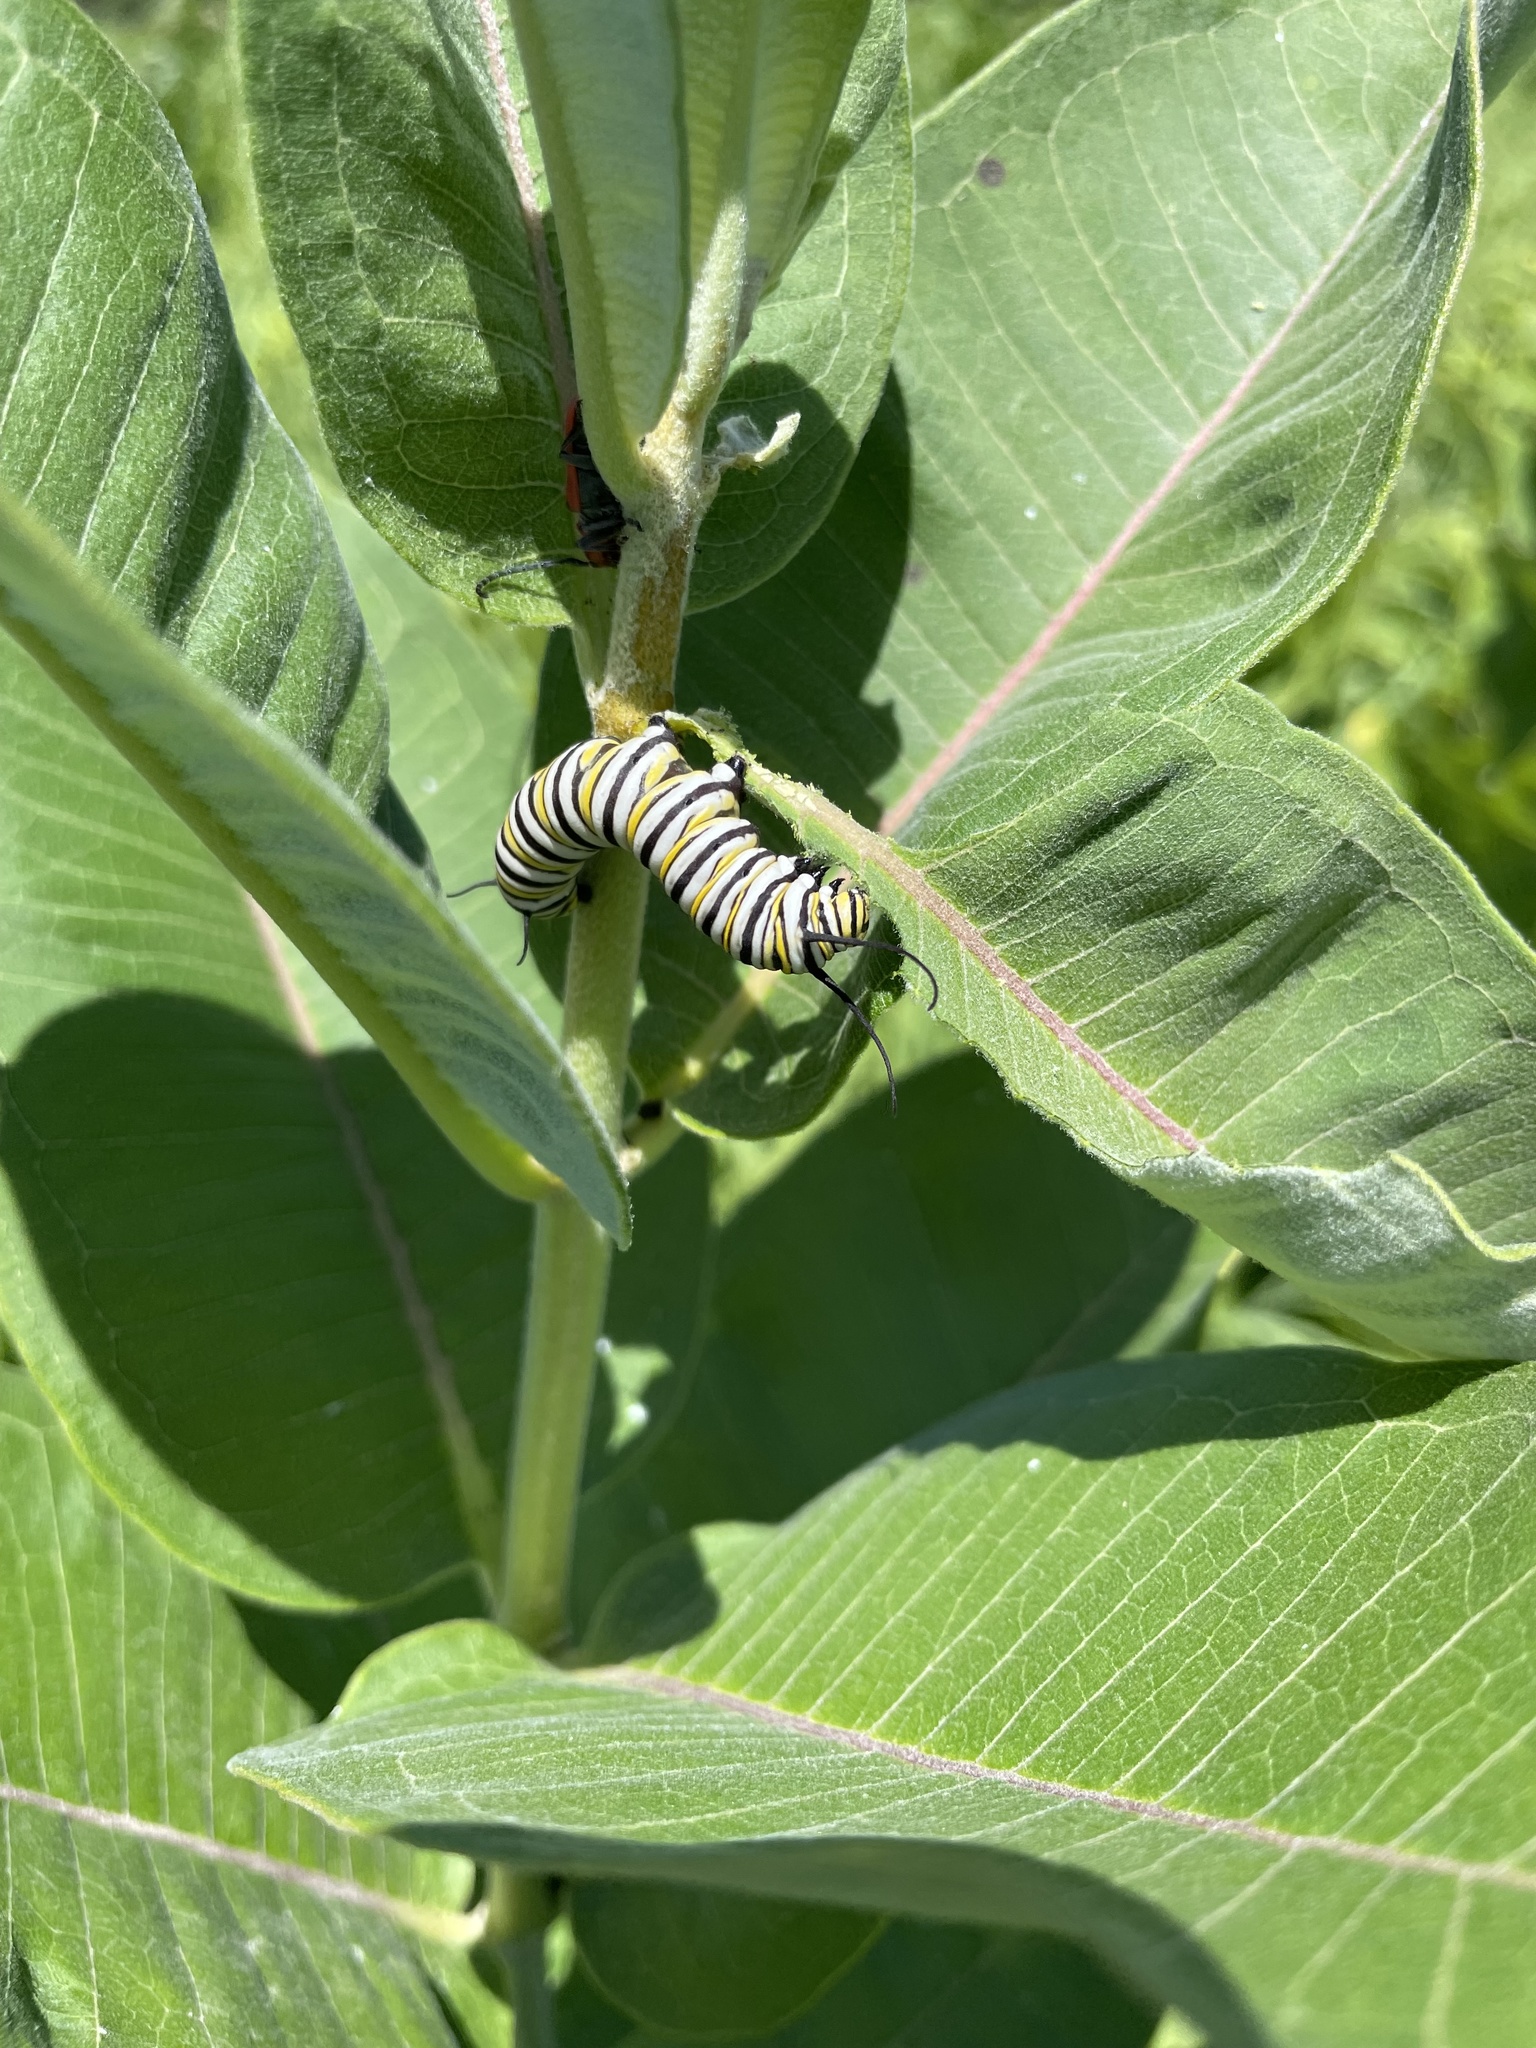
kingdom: Animalia
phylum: Arthropoda
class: Insecta
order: Lepidoptera
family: Nymphalidae
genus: Danaus
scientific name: Danaus plexippus
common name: Monarch
